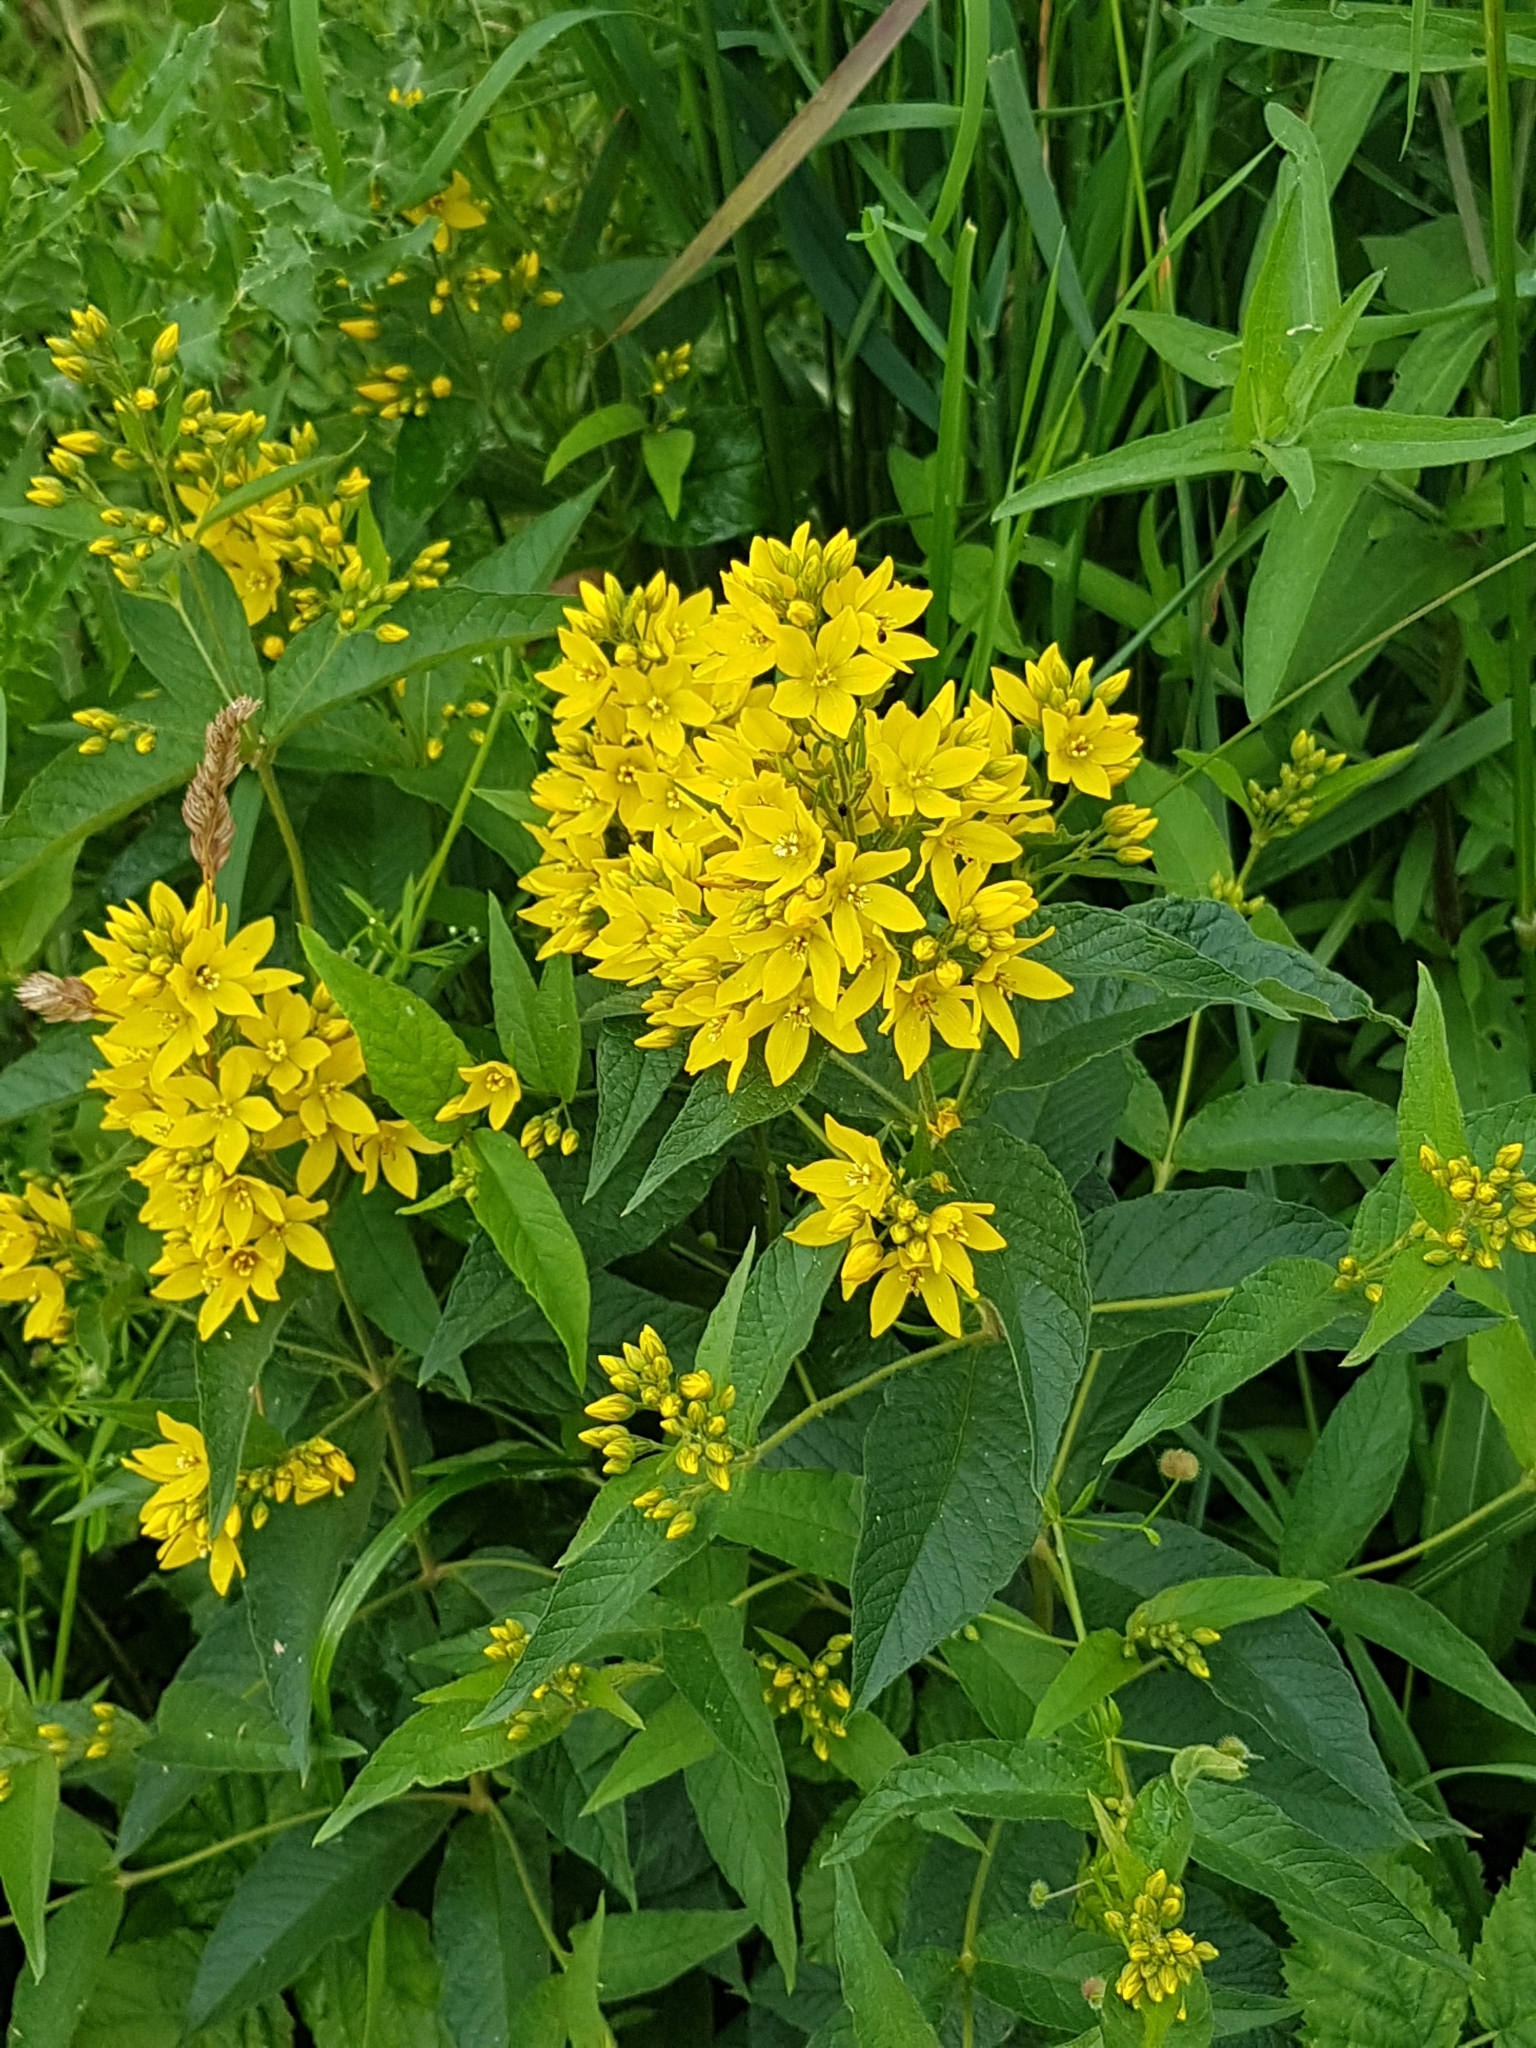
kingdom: Plantae
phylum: Tracheophyta
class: Magnoliopsida
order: Ericales
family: Primulaceae
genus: Lysimachia
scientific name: Lysimachia vulgaris
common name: Yellow loosestrife
